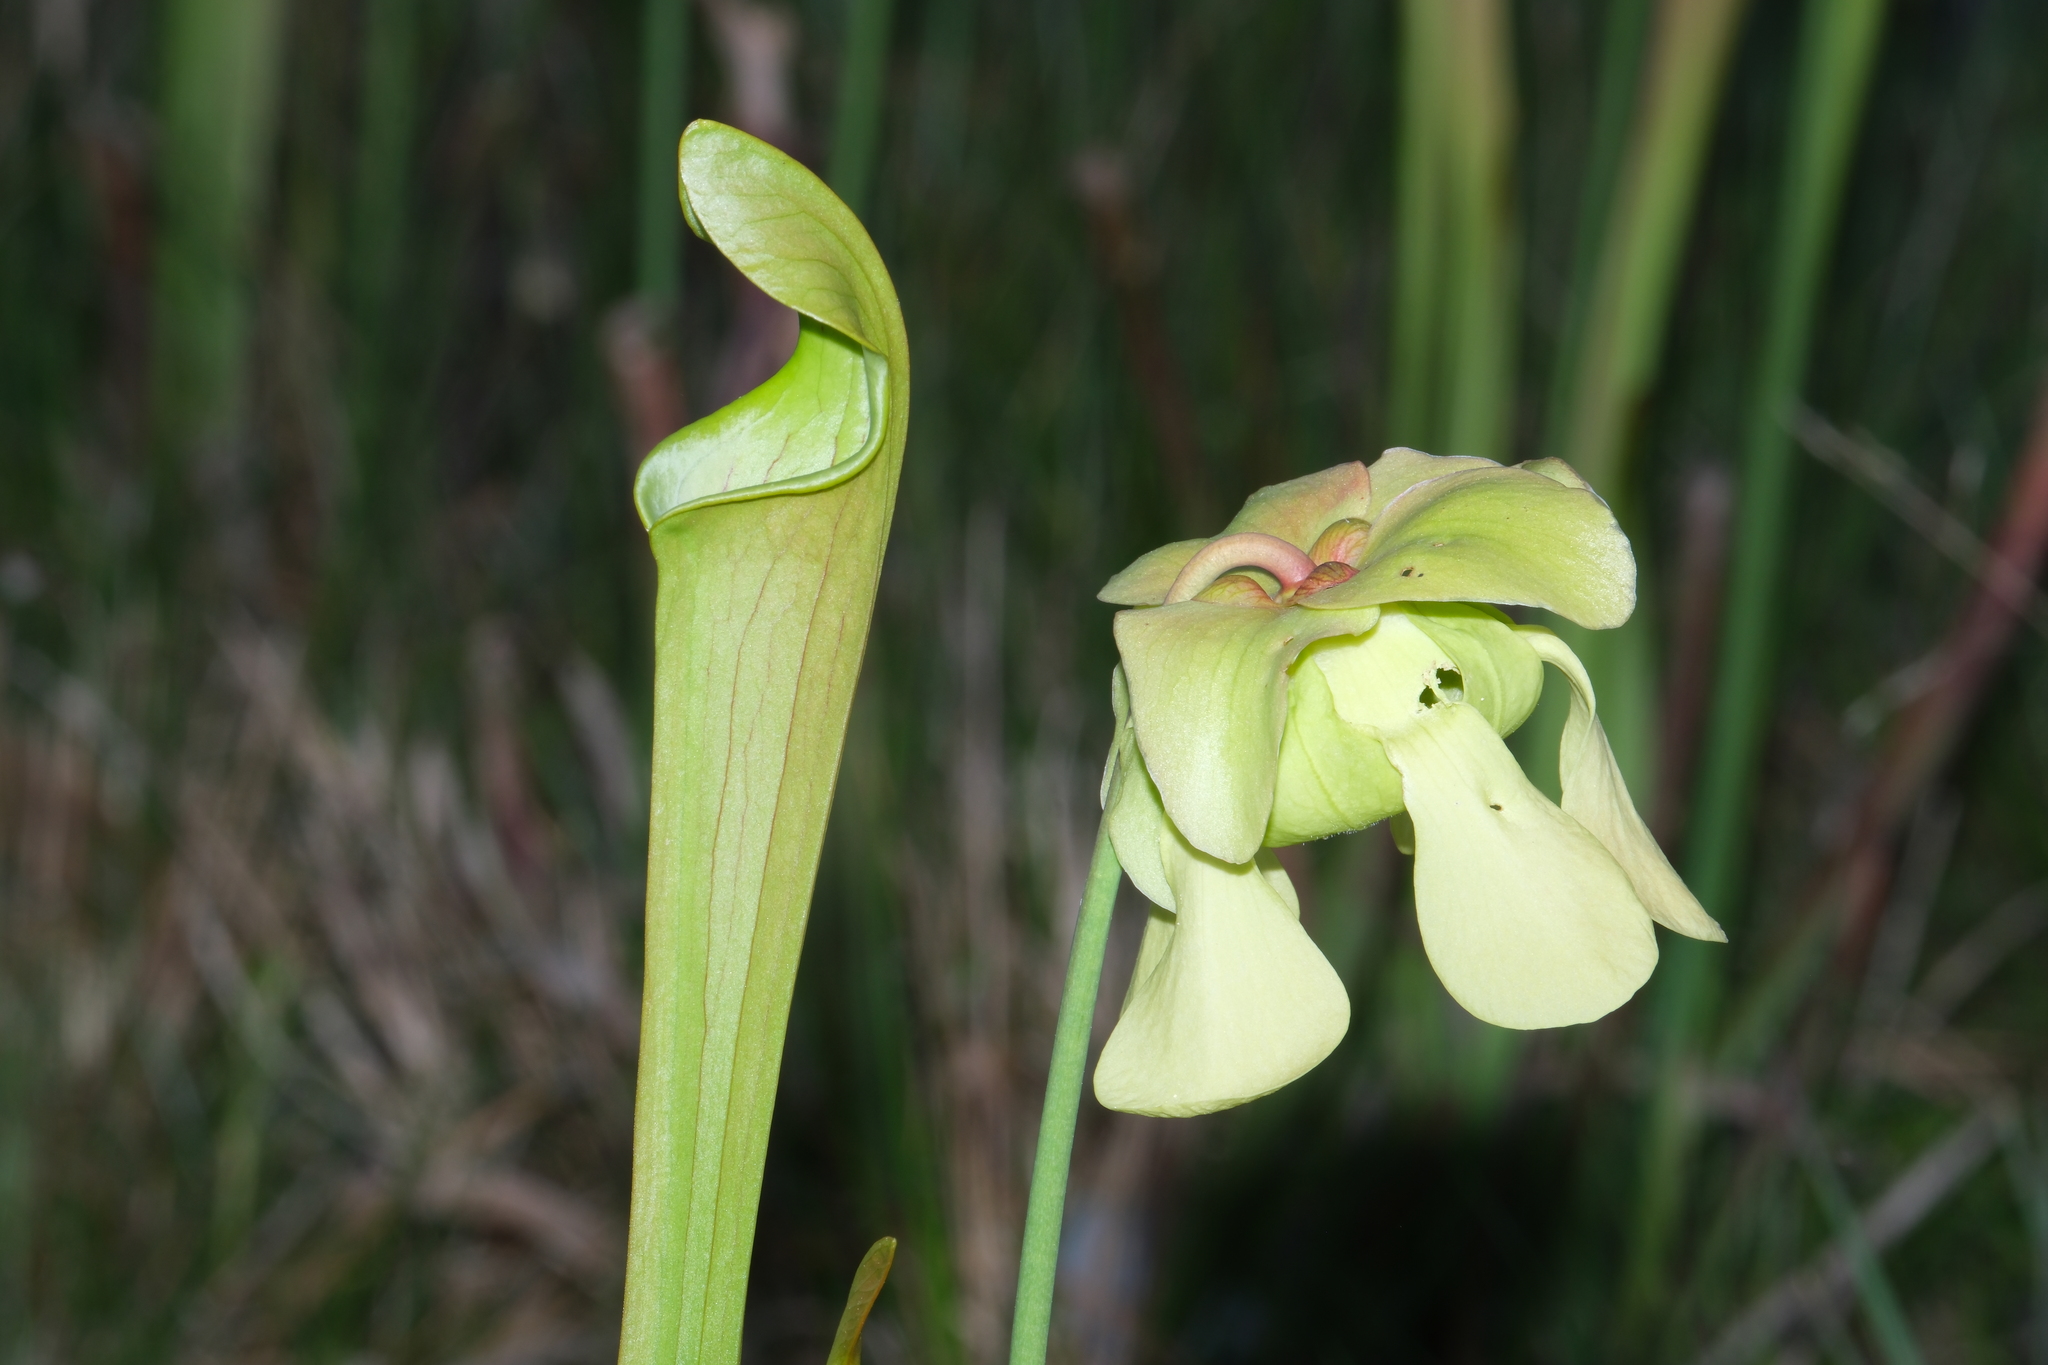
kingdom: Plantae
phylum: Tracheophyta
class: Magnoliopsida
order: Ericales
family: Sarraceniaceae
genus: Sarracenia
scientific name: Sarracenia alata
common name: Yellow trumpets
